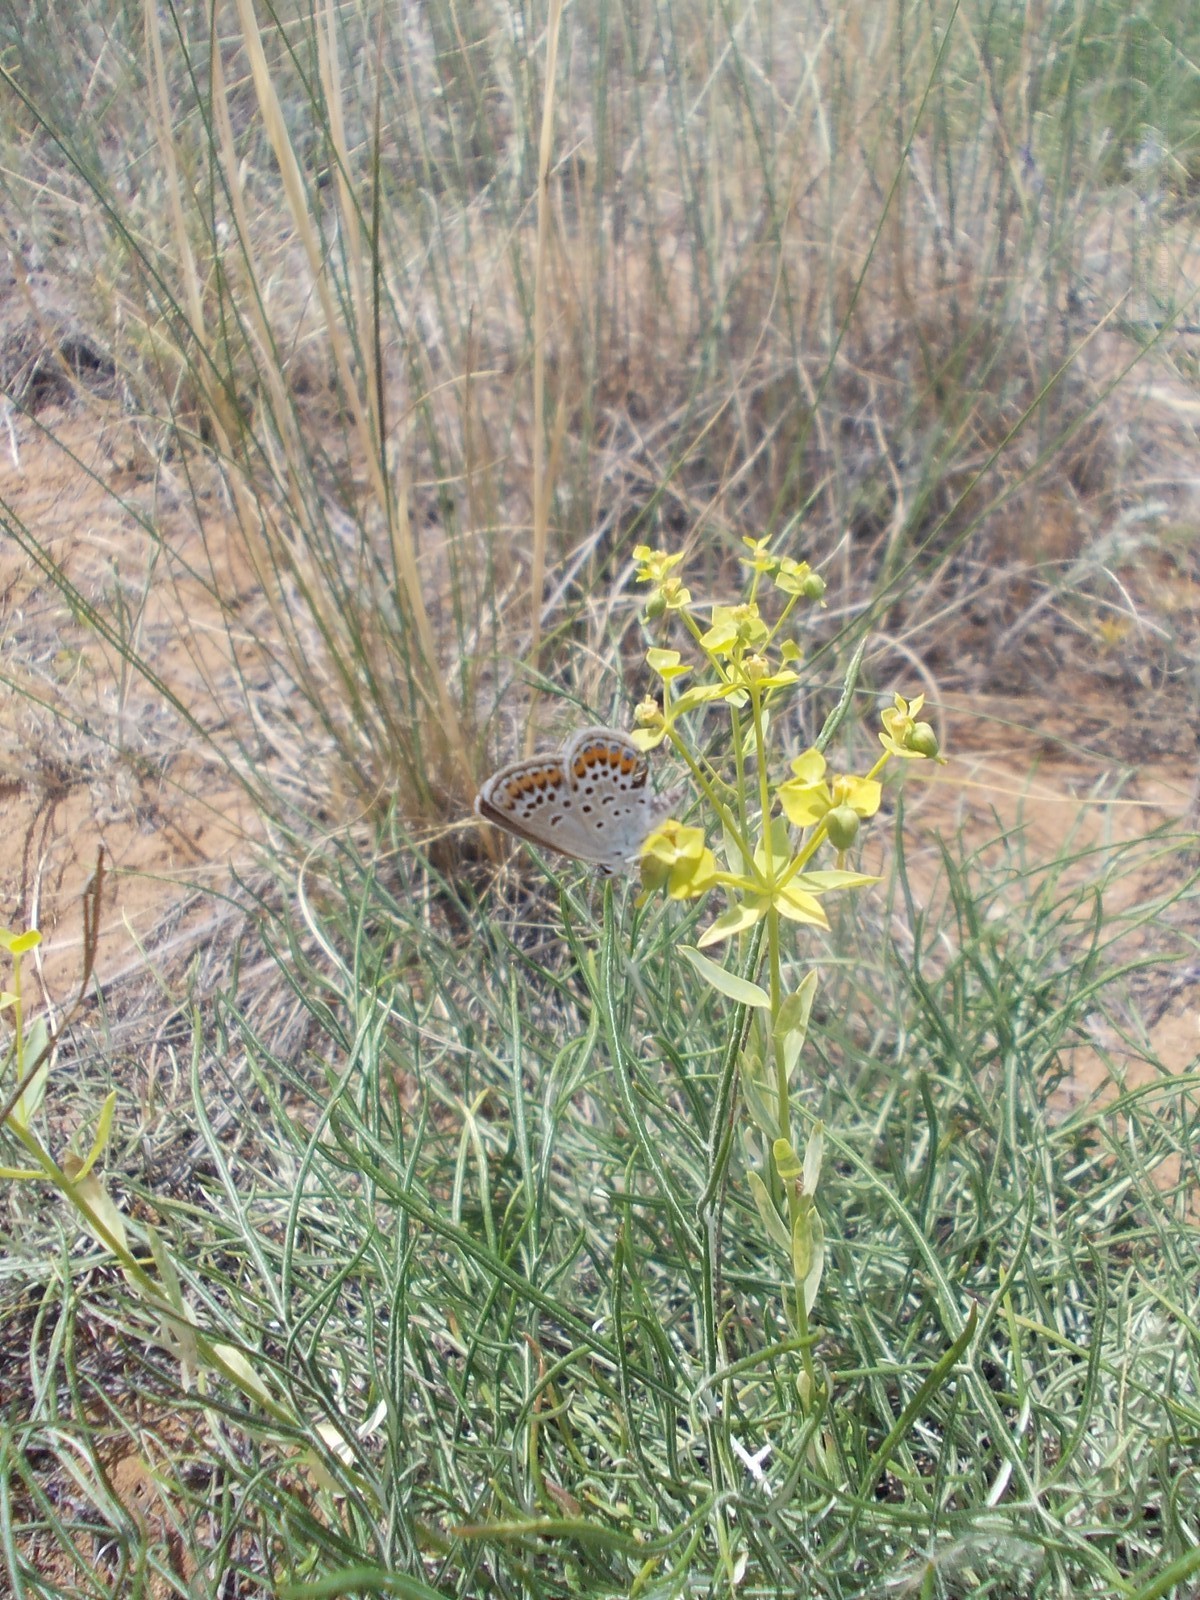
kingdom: Plantae
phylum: Tracheophyta
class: Magnoliopsida
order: Malpighiales
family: Euphorbiaceae
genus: Euphorbia
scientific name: Euphorbia seguieriana
